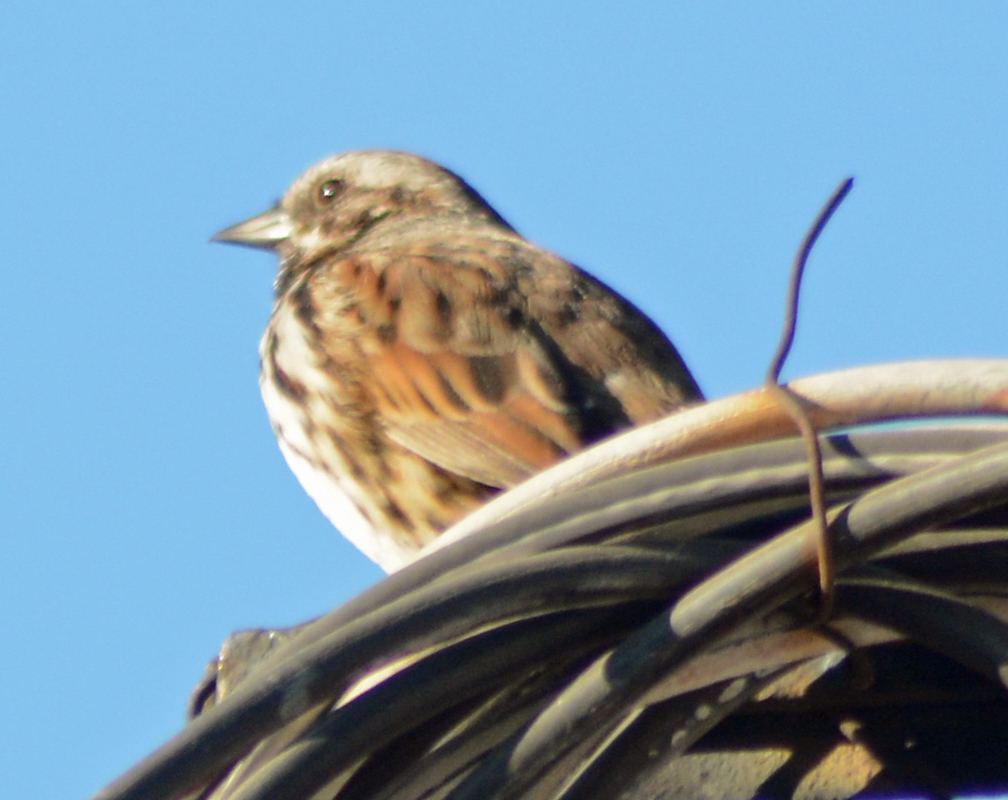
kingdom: Animalia
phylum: Chordata
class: Aves
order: Passeriformes
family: Passerellidae
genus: Melospiza
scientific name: Melospiza melodia
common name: Song sparrow
